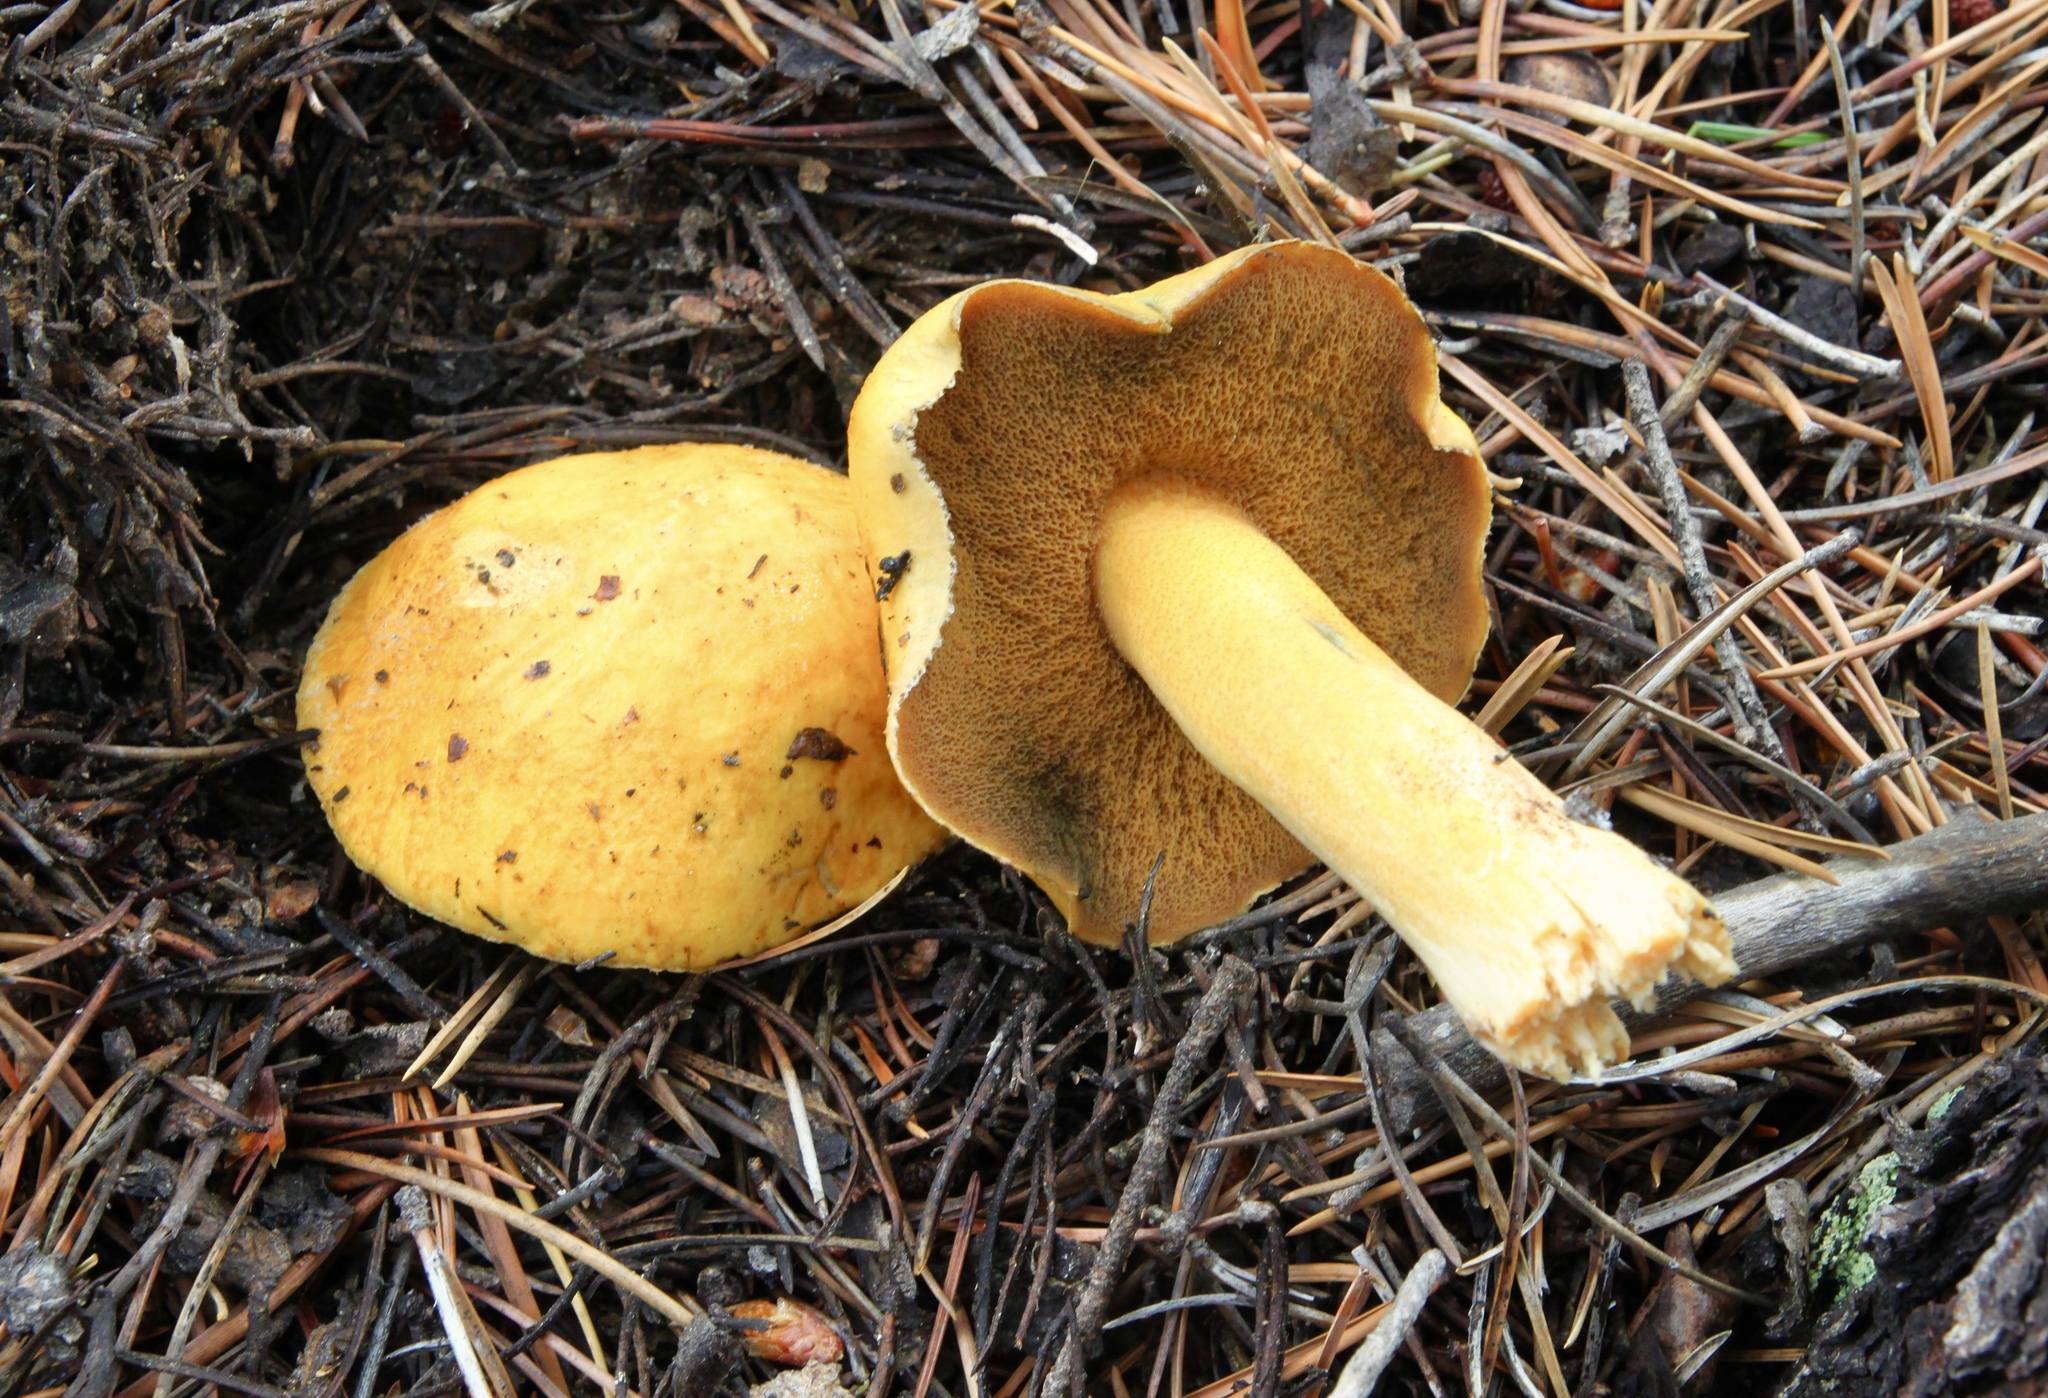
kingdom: Fungi
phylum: Basidiomycota
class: Agaricomycetes
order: Boletales
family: Suillaceae
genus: Suillus
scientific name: Suillus tomentosus
